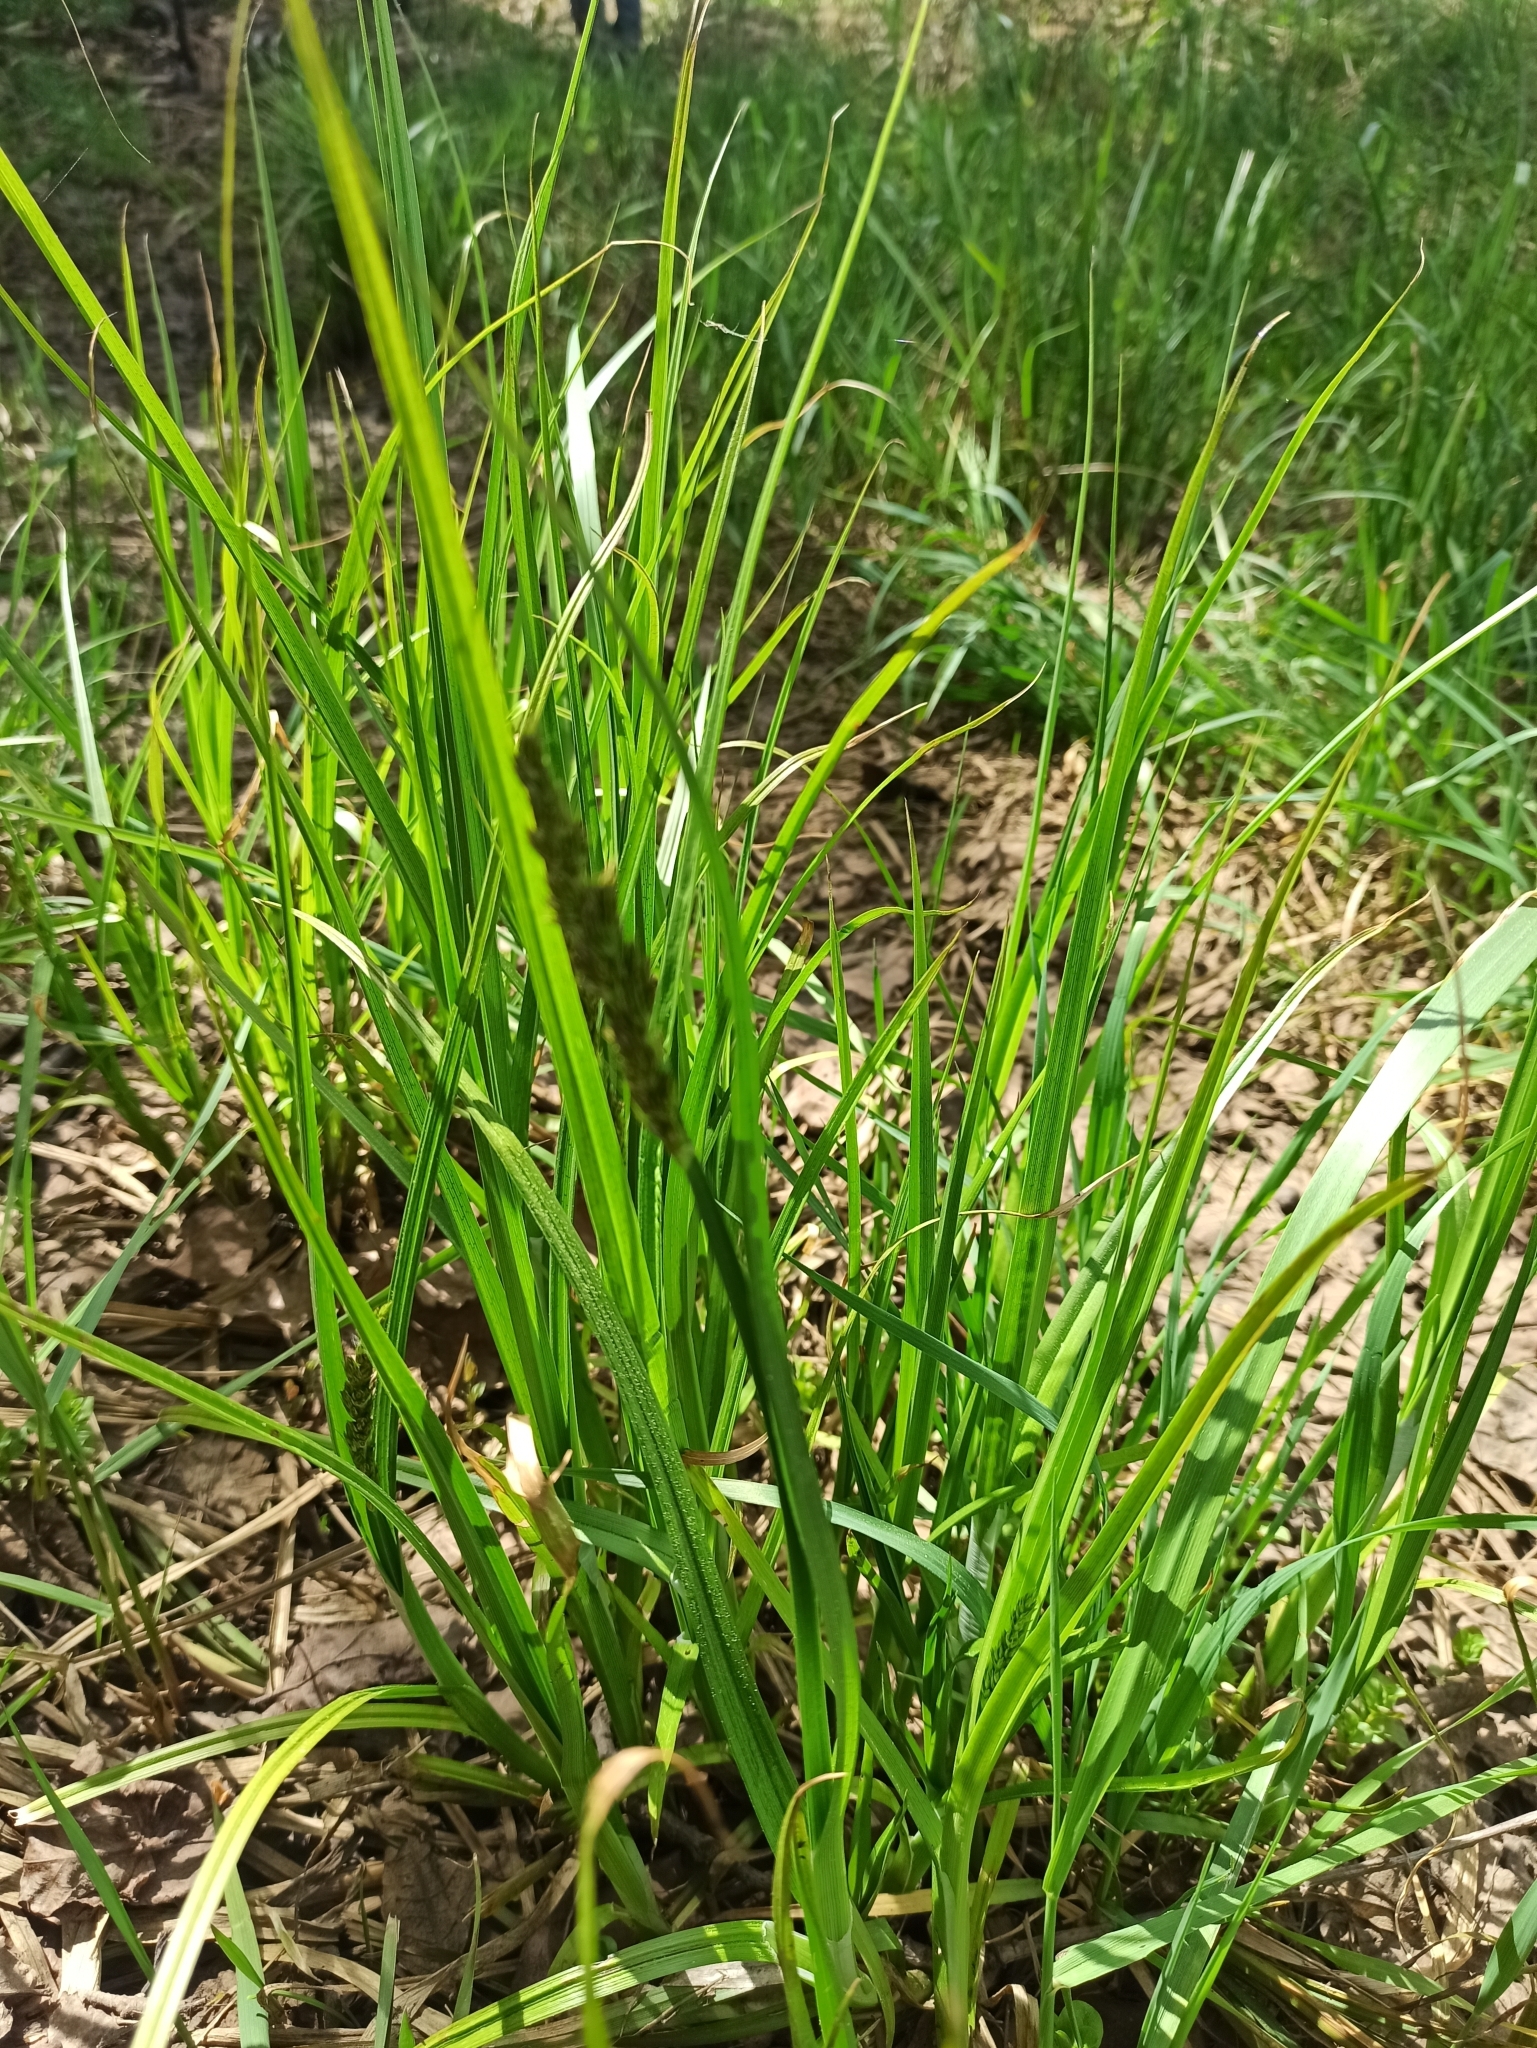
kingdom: Plantae
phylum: Tracheophyta
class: Liliopsida
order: Poales
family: Cyperaceae
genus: Carex
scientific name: Carex vulpina
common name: True fox-sedge
